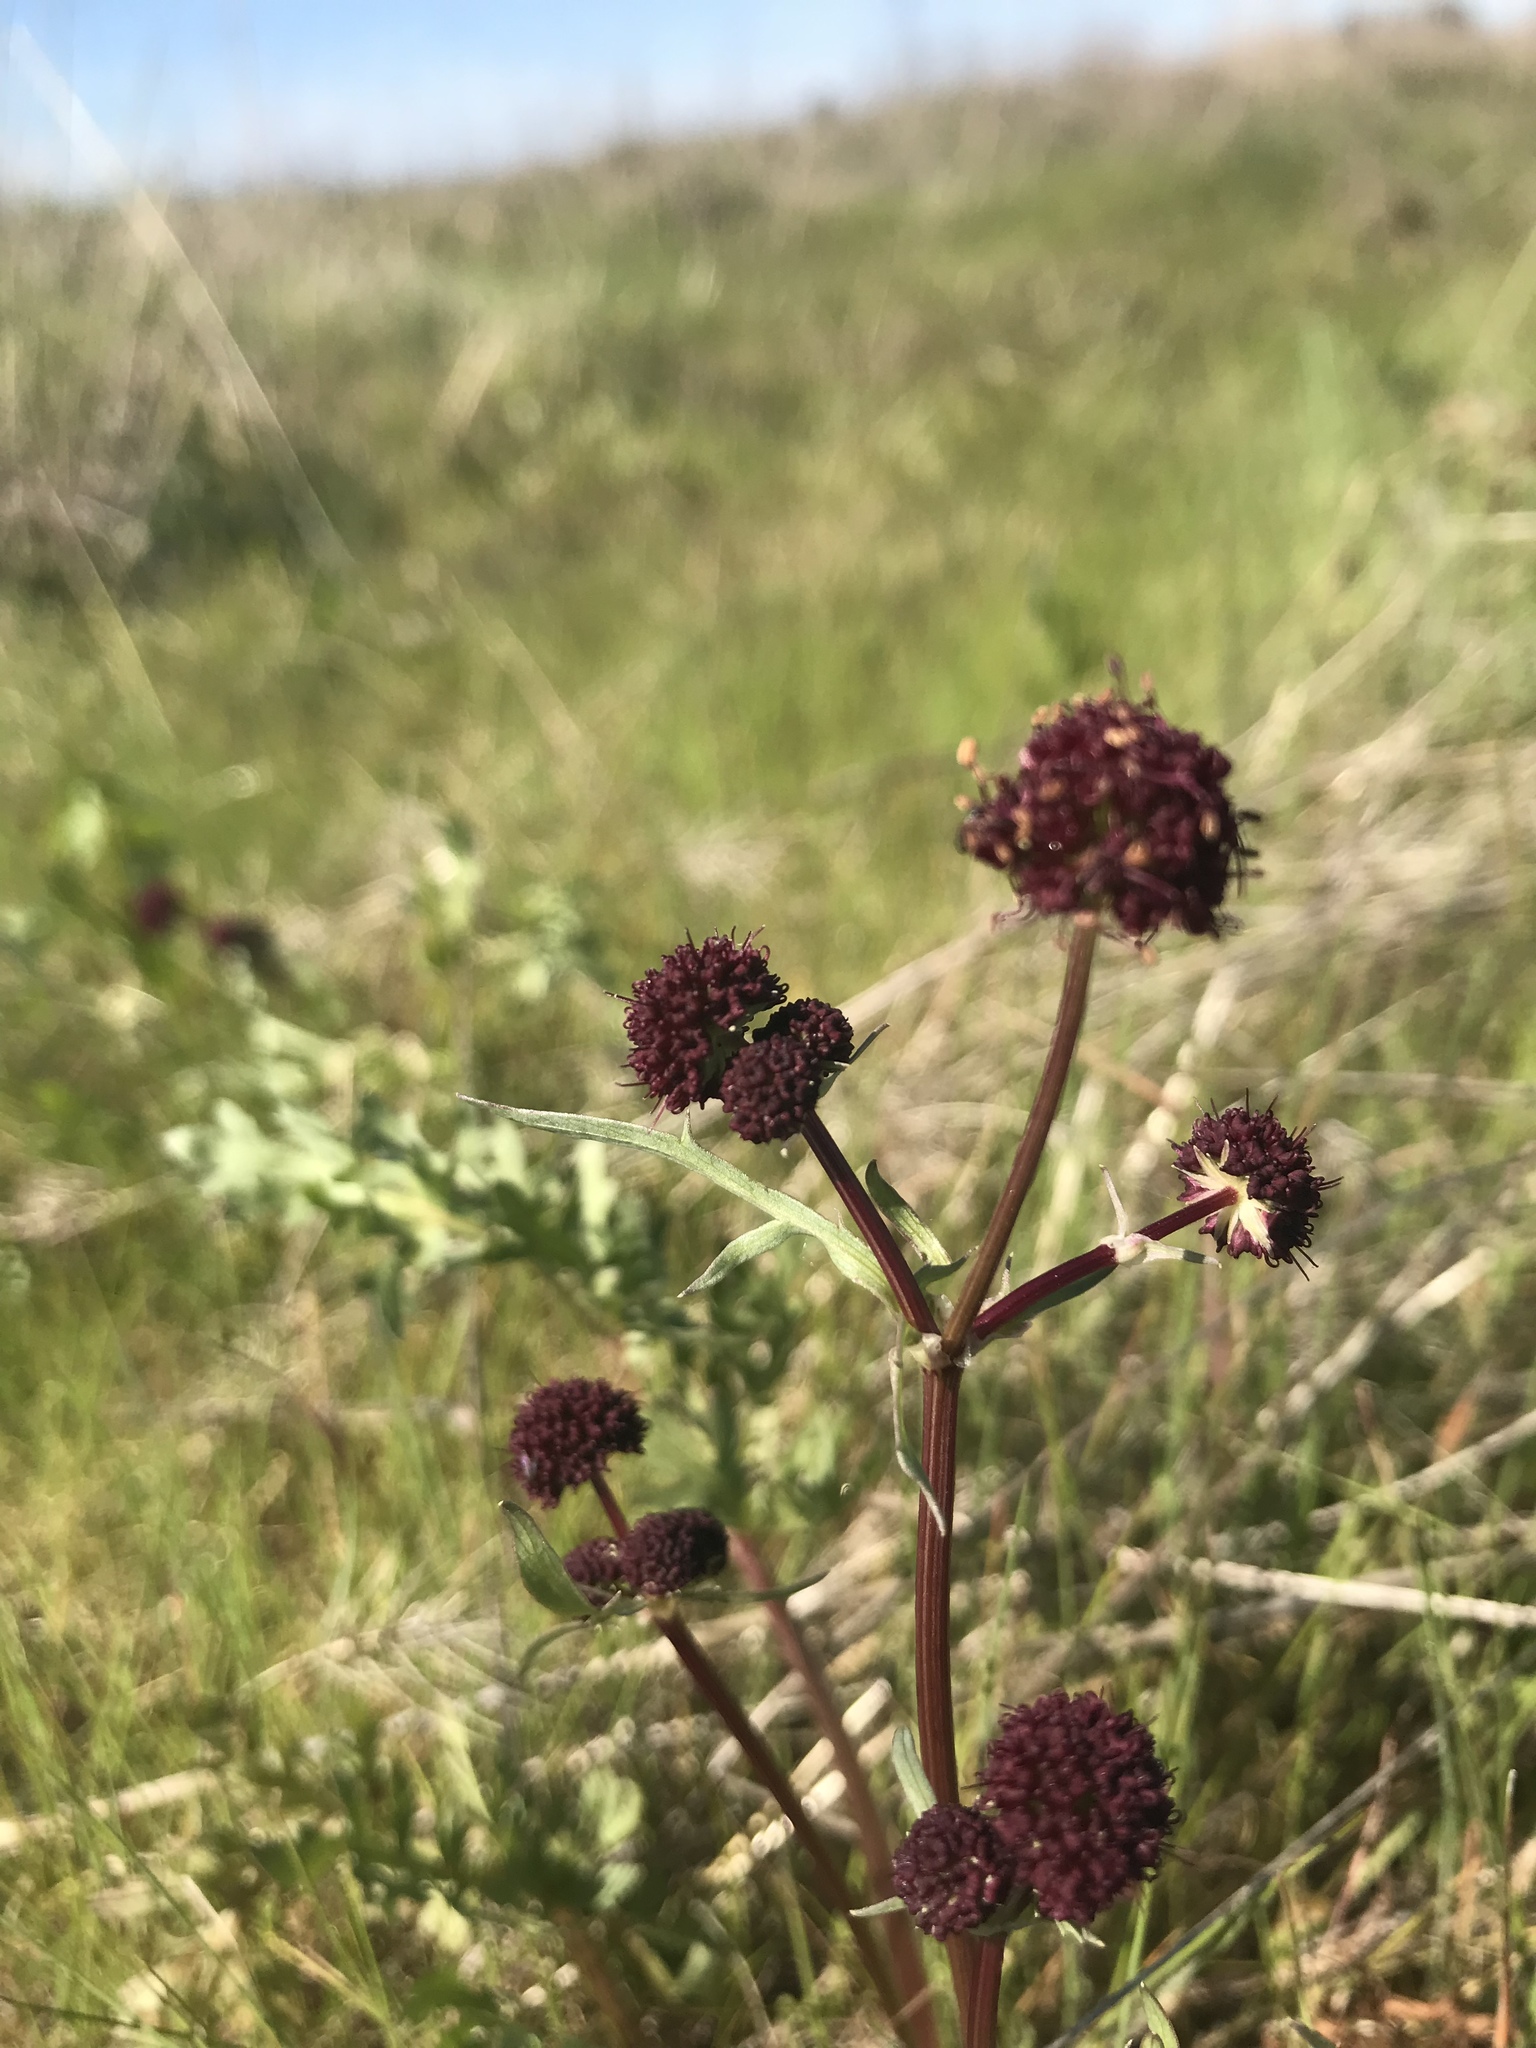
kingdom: Plantae
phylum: Tracheophyta
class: Magnoliopsida
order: Apiales
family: Apiaceae
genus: Sanicula
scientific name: Sanicula bipinnatifida
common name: Shoe-buttons
